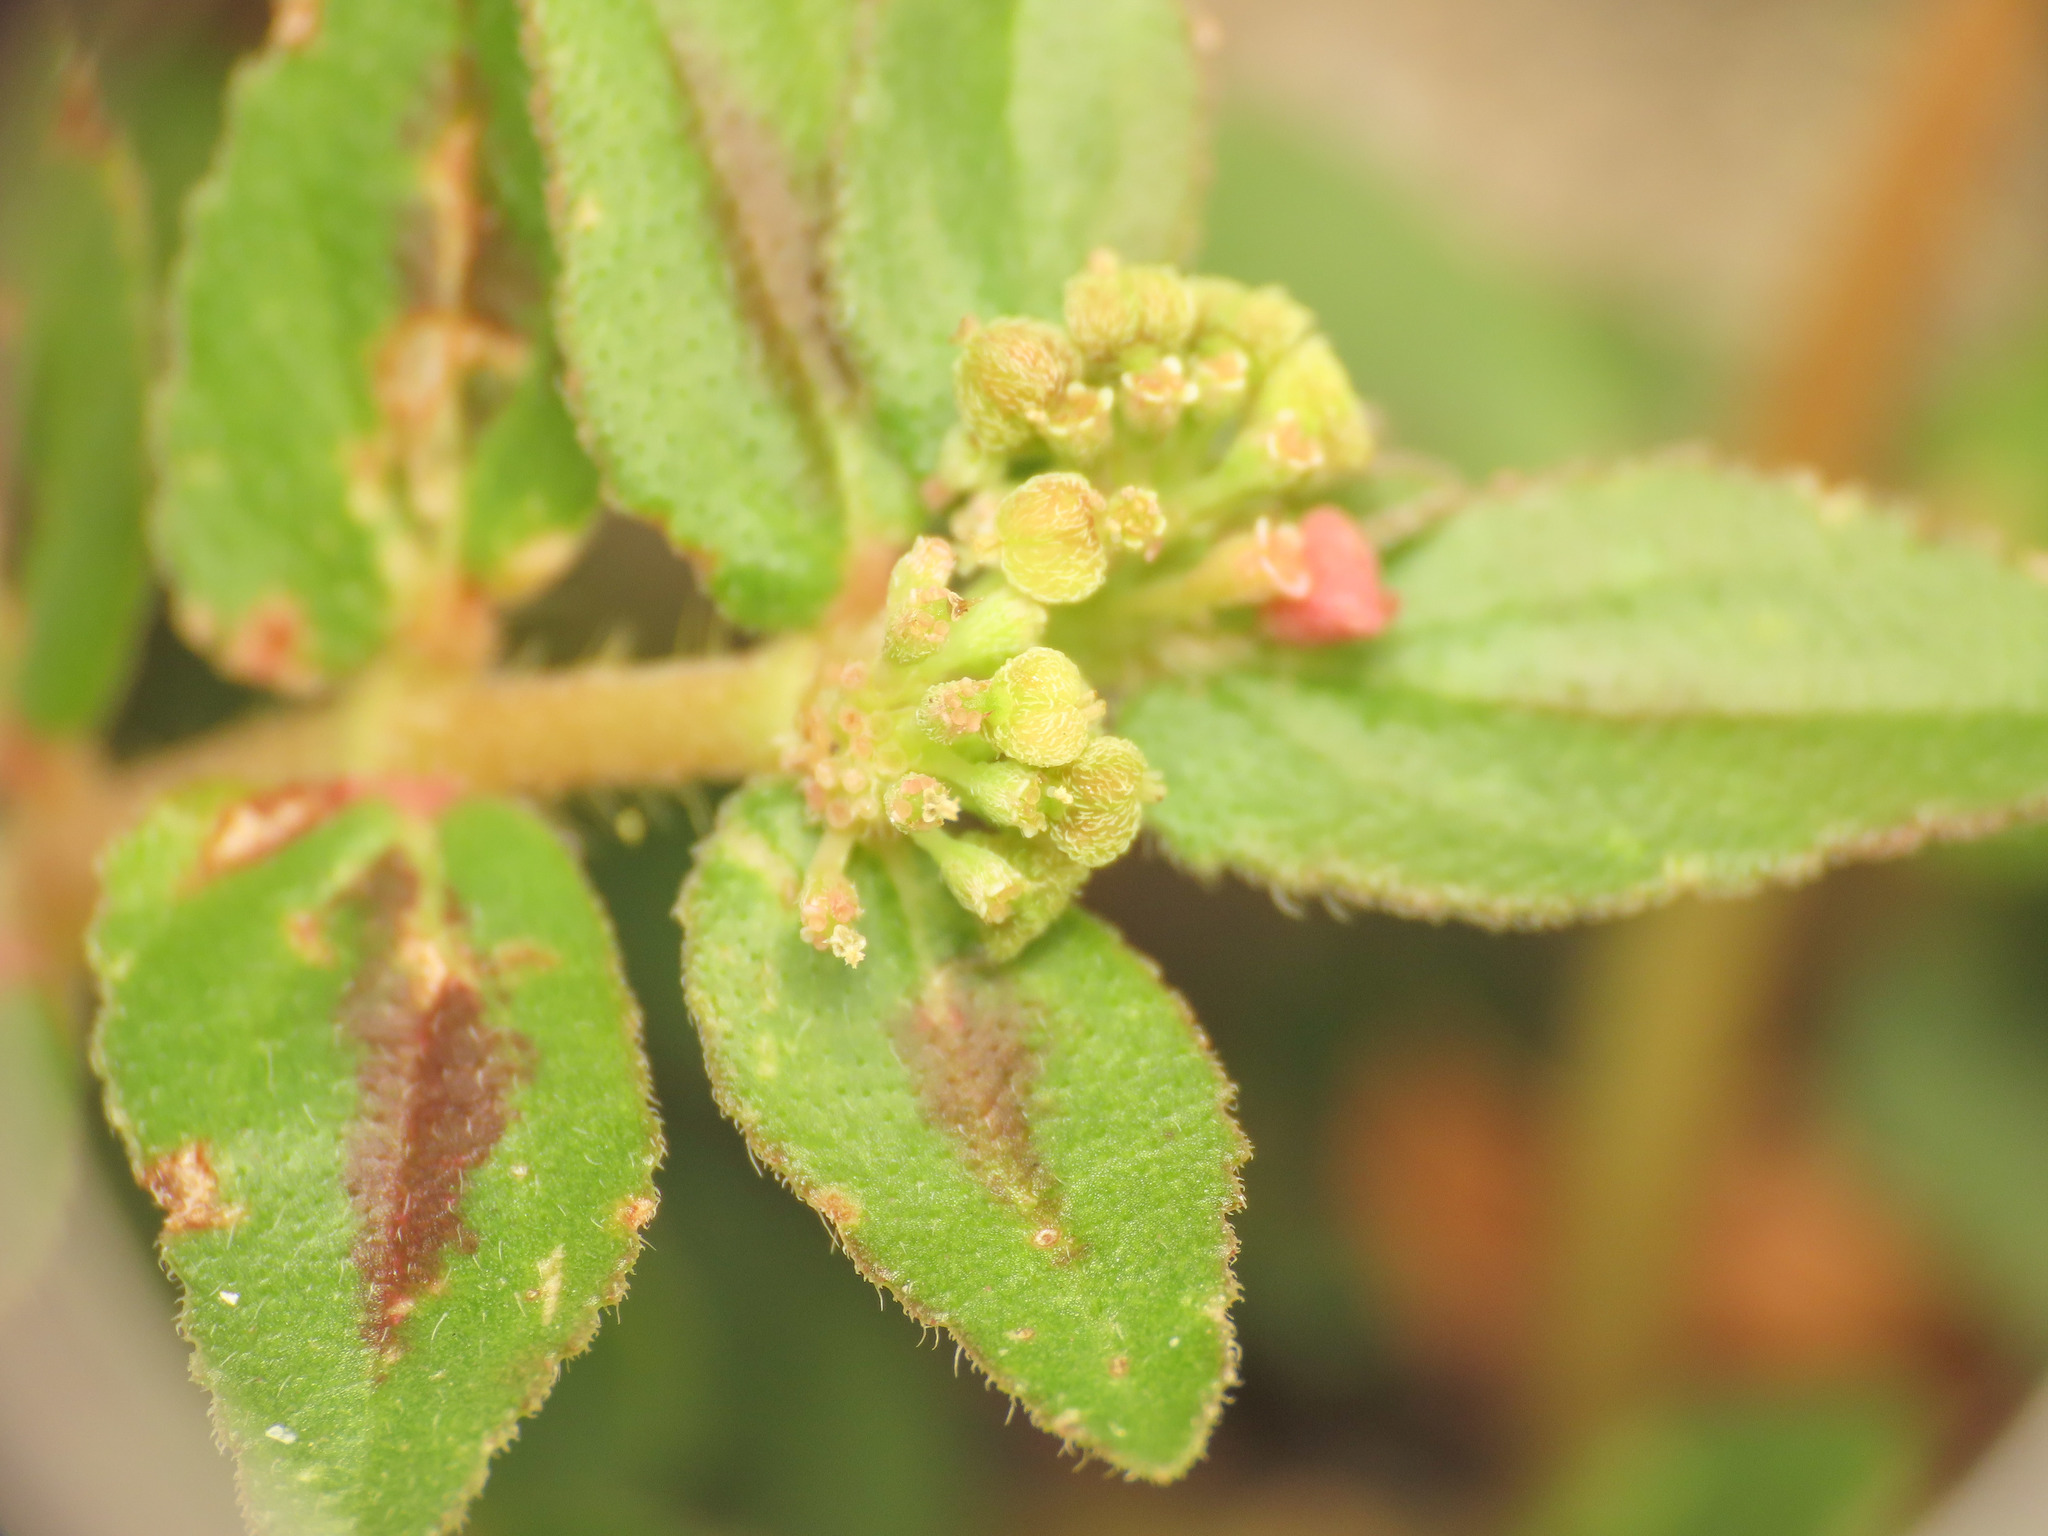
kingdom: Plantae
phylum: Tracheophyta
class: Magnoliopsida
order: Malpighiales
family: Euphorbiaceae
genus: Euphorbia
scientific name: Euphorbia hirta
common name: Pillpod sandmat
